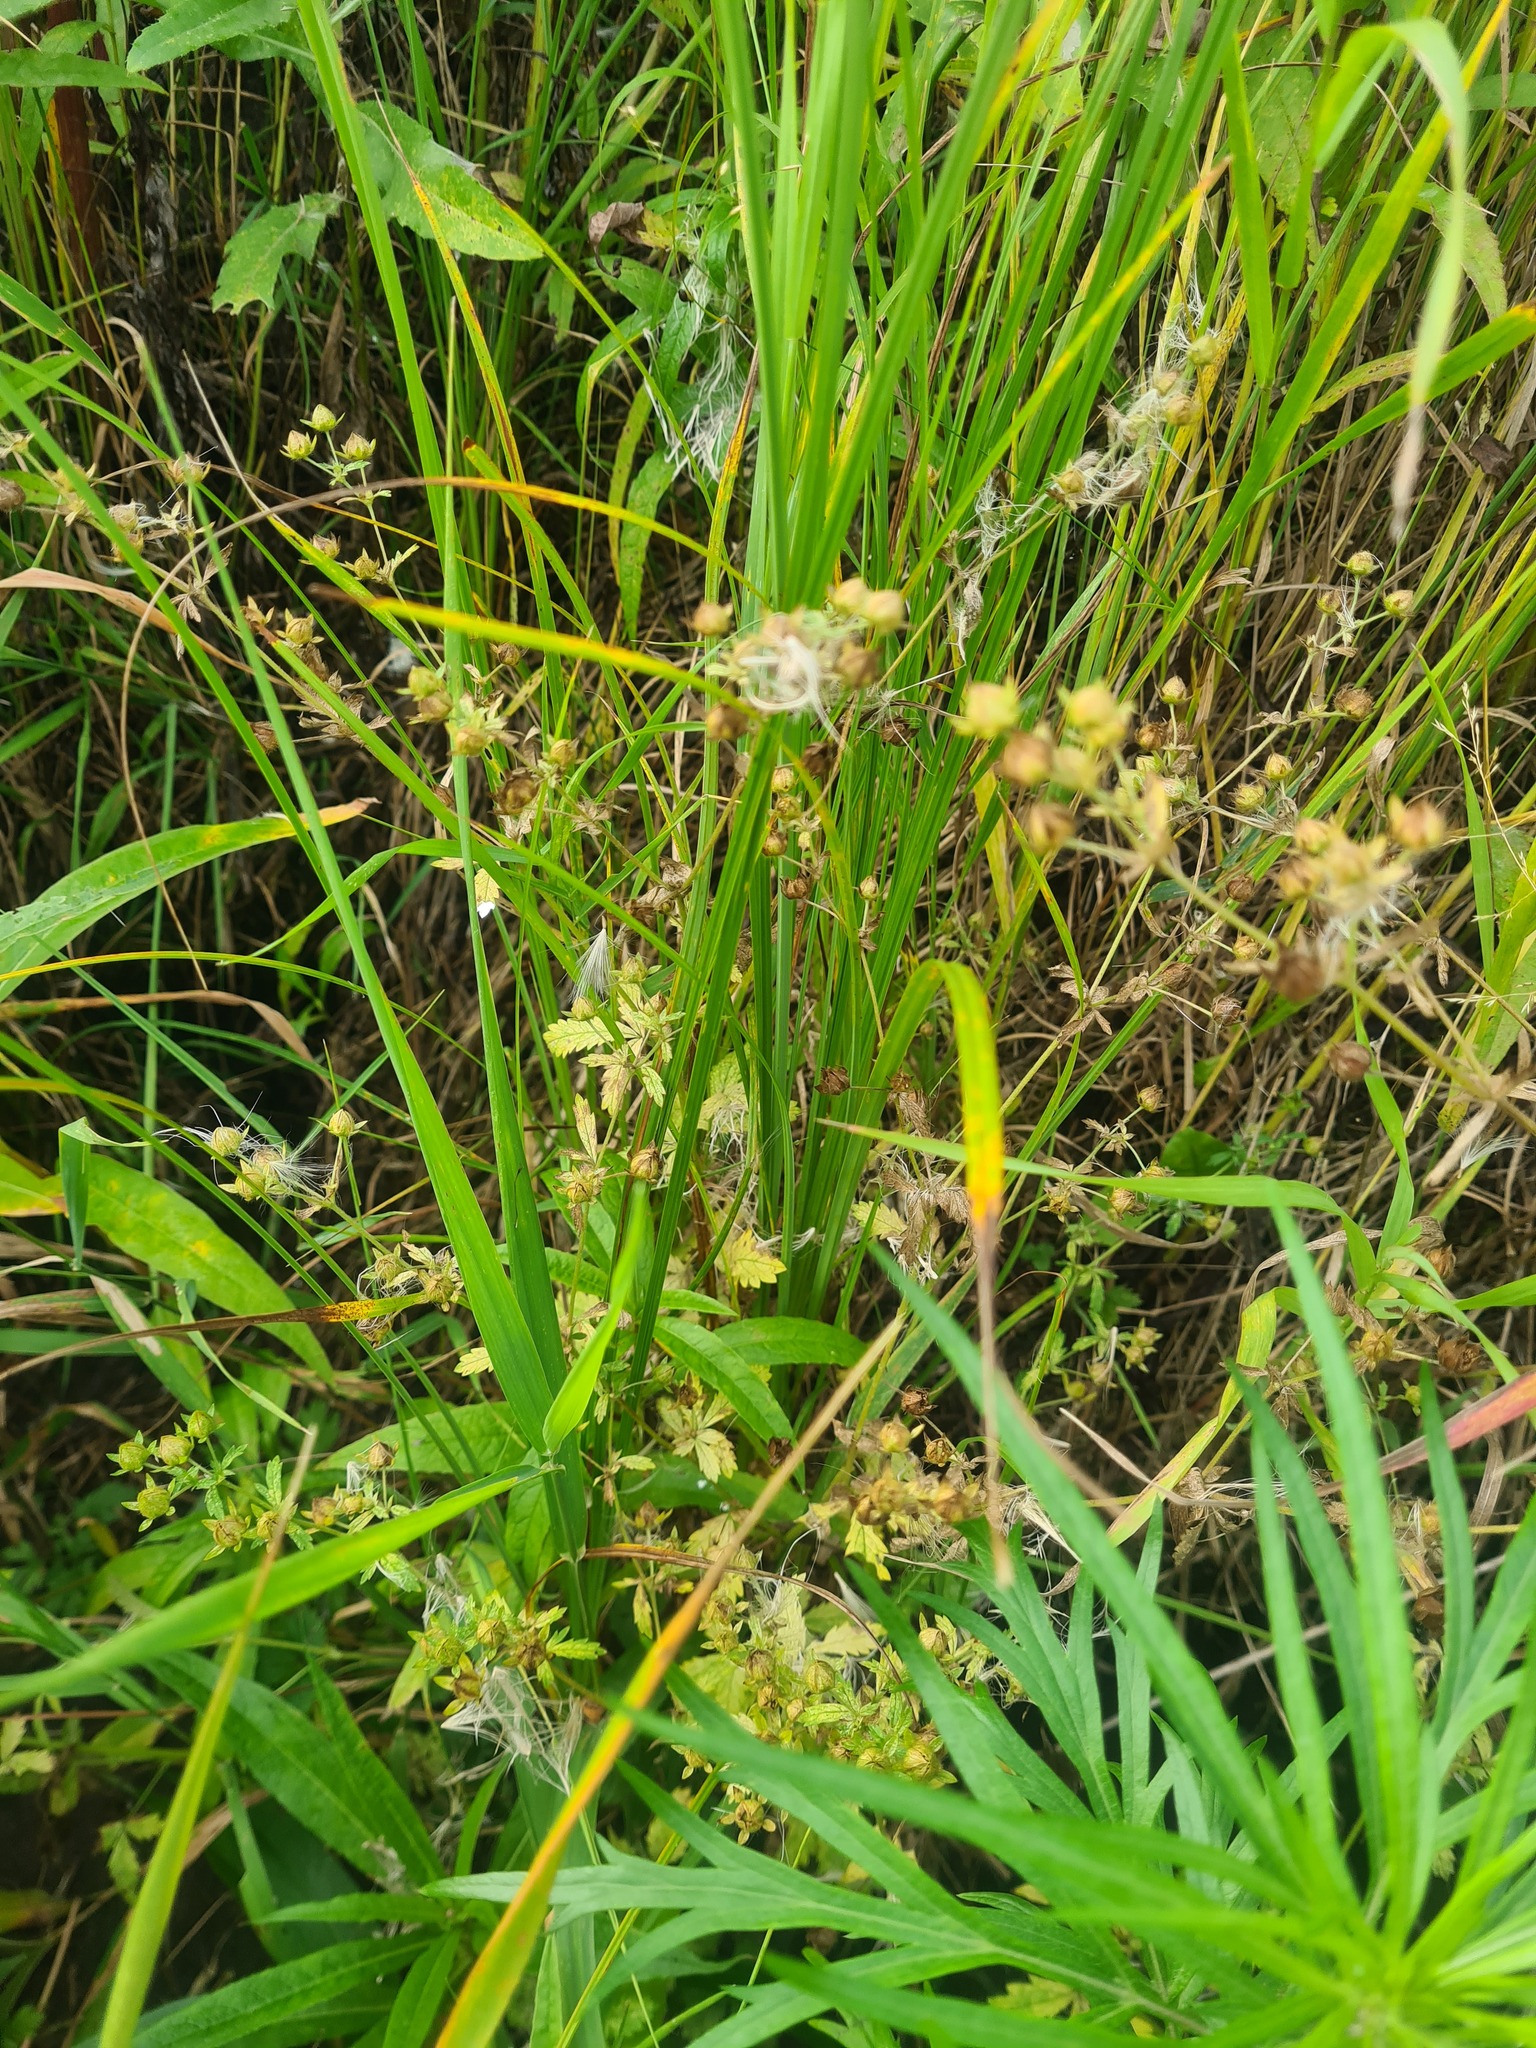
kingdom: Plantae
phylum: Tracheophyta
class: Magnoliopsida
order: Rosales
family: Rosaceae
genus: Potentilla
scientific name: Potentilla norvegica
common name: Ternate-leaved cinquefoil
